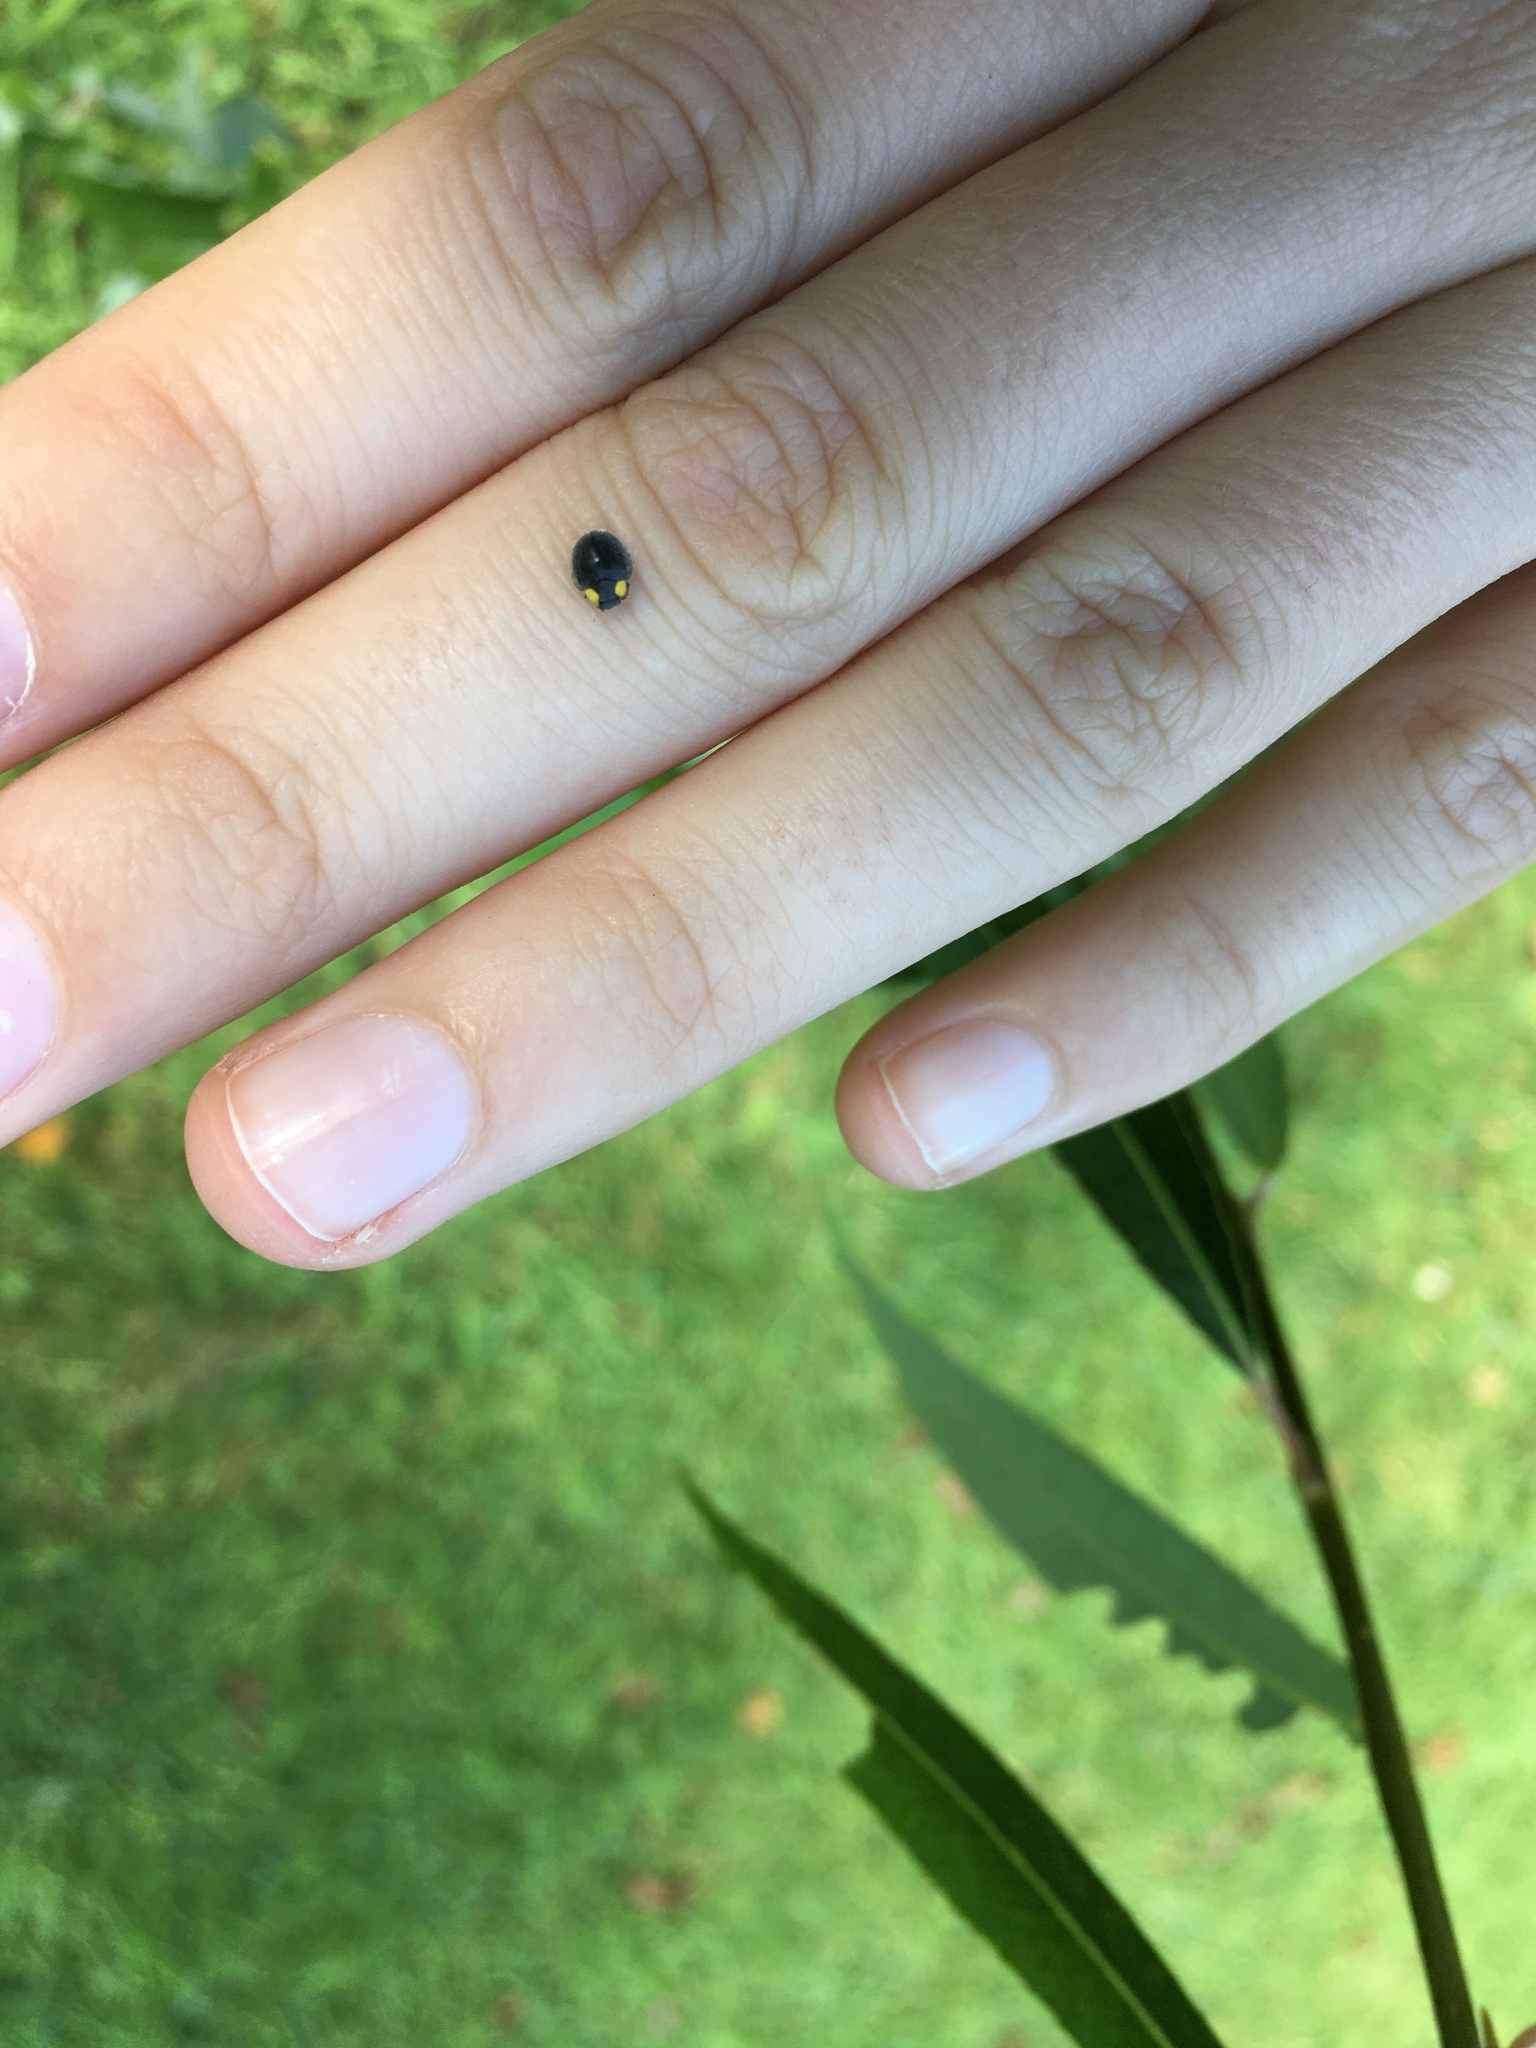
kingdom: Animalia
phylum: Arthropoda
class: Insecta
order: Coleoptera
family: Coccinellidae
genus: Scymnodes
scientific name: Scymnodes lividigaster
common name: Yellowshouldered lady beetle
